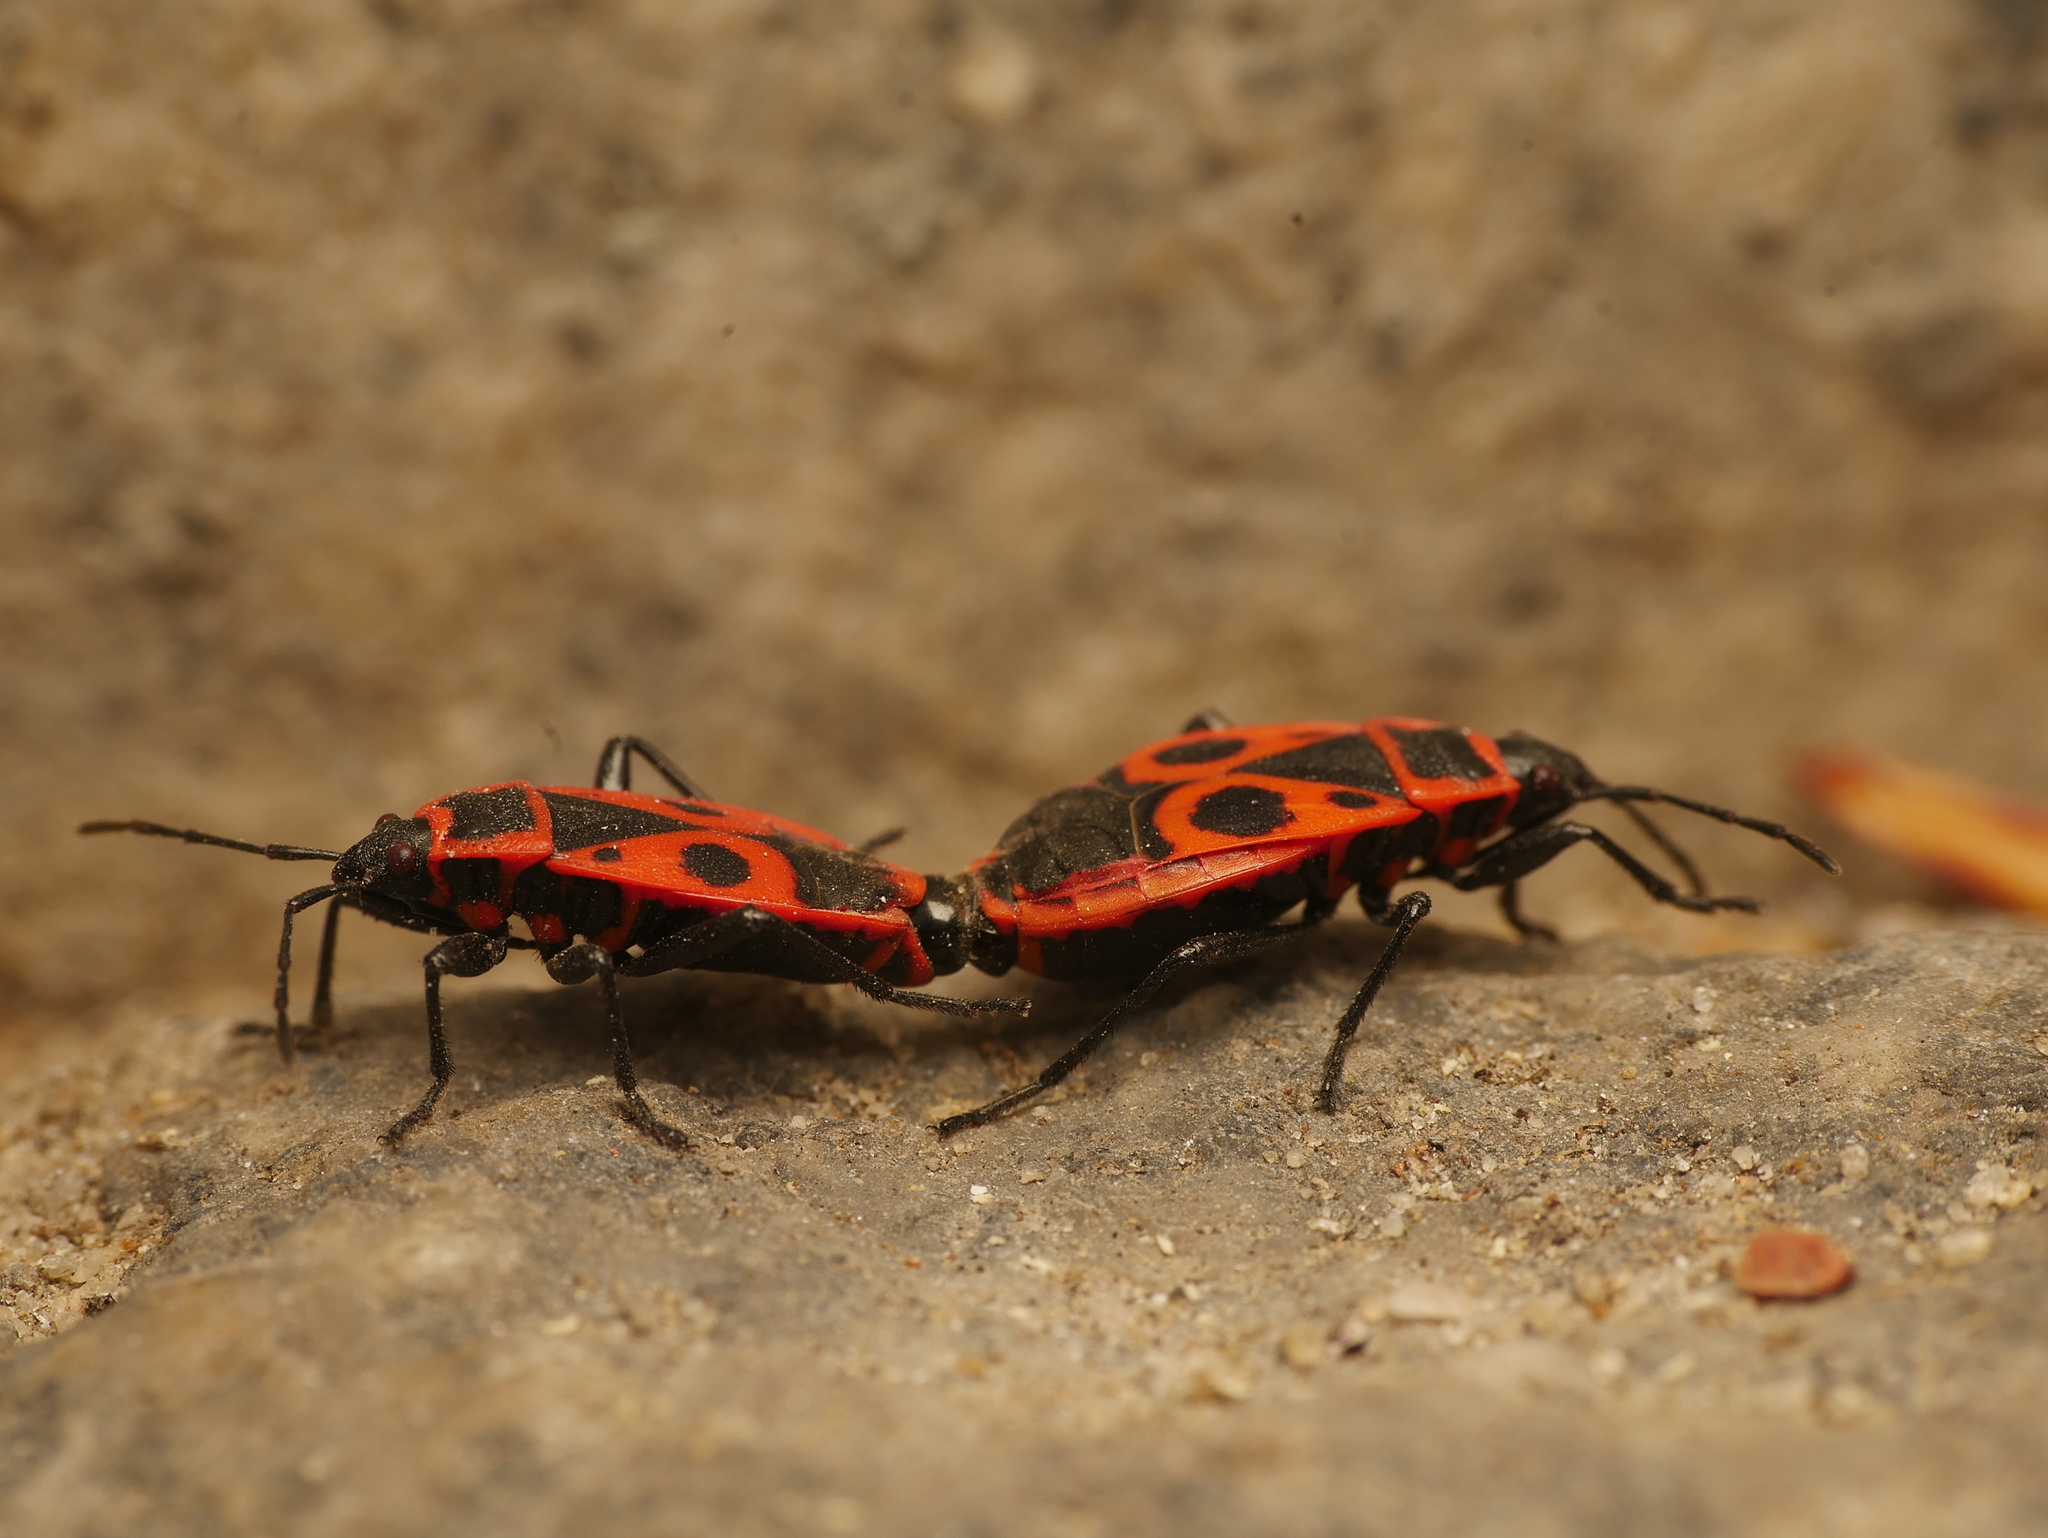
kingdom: Animalia
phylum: Arthropoda
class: Insecta
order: Hemiptera
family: Pyrrhocoridae
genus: Pyrrhocoris
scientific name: Pyrrhocoris apterus
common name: Firebug
